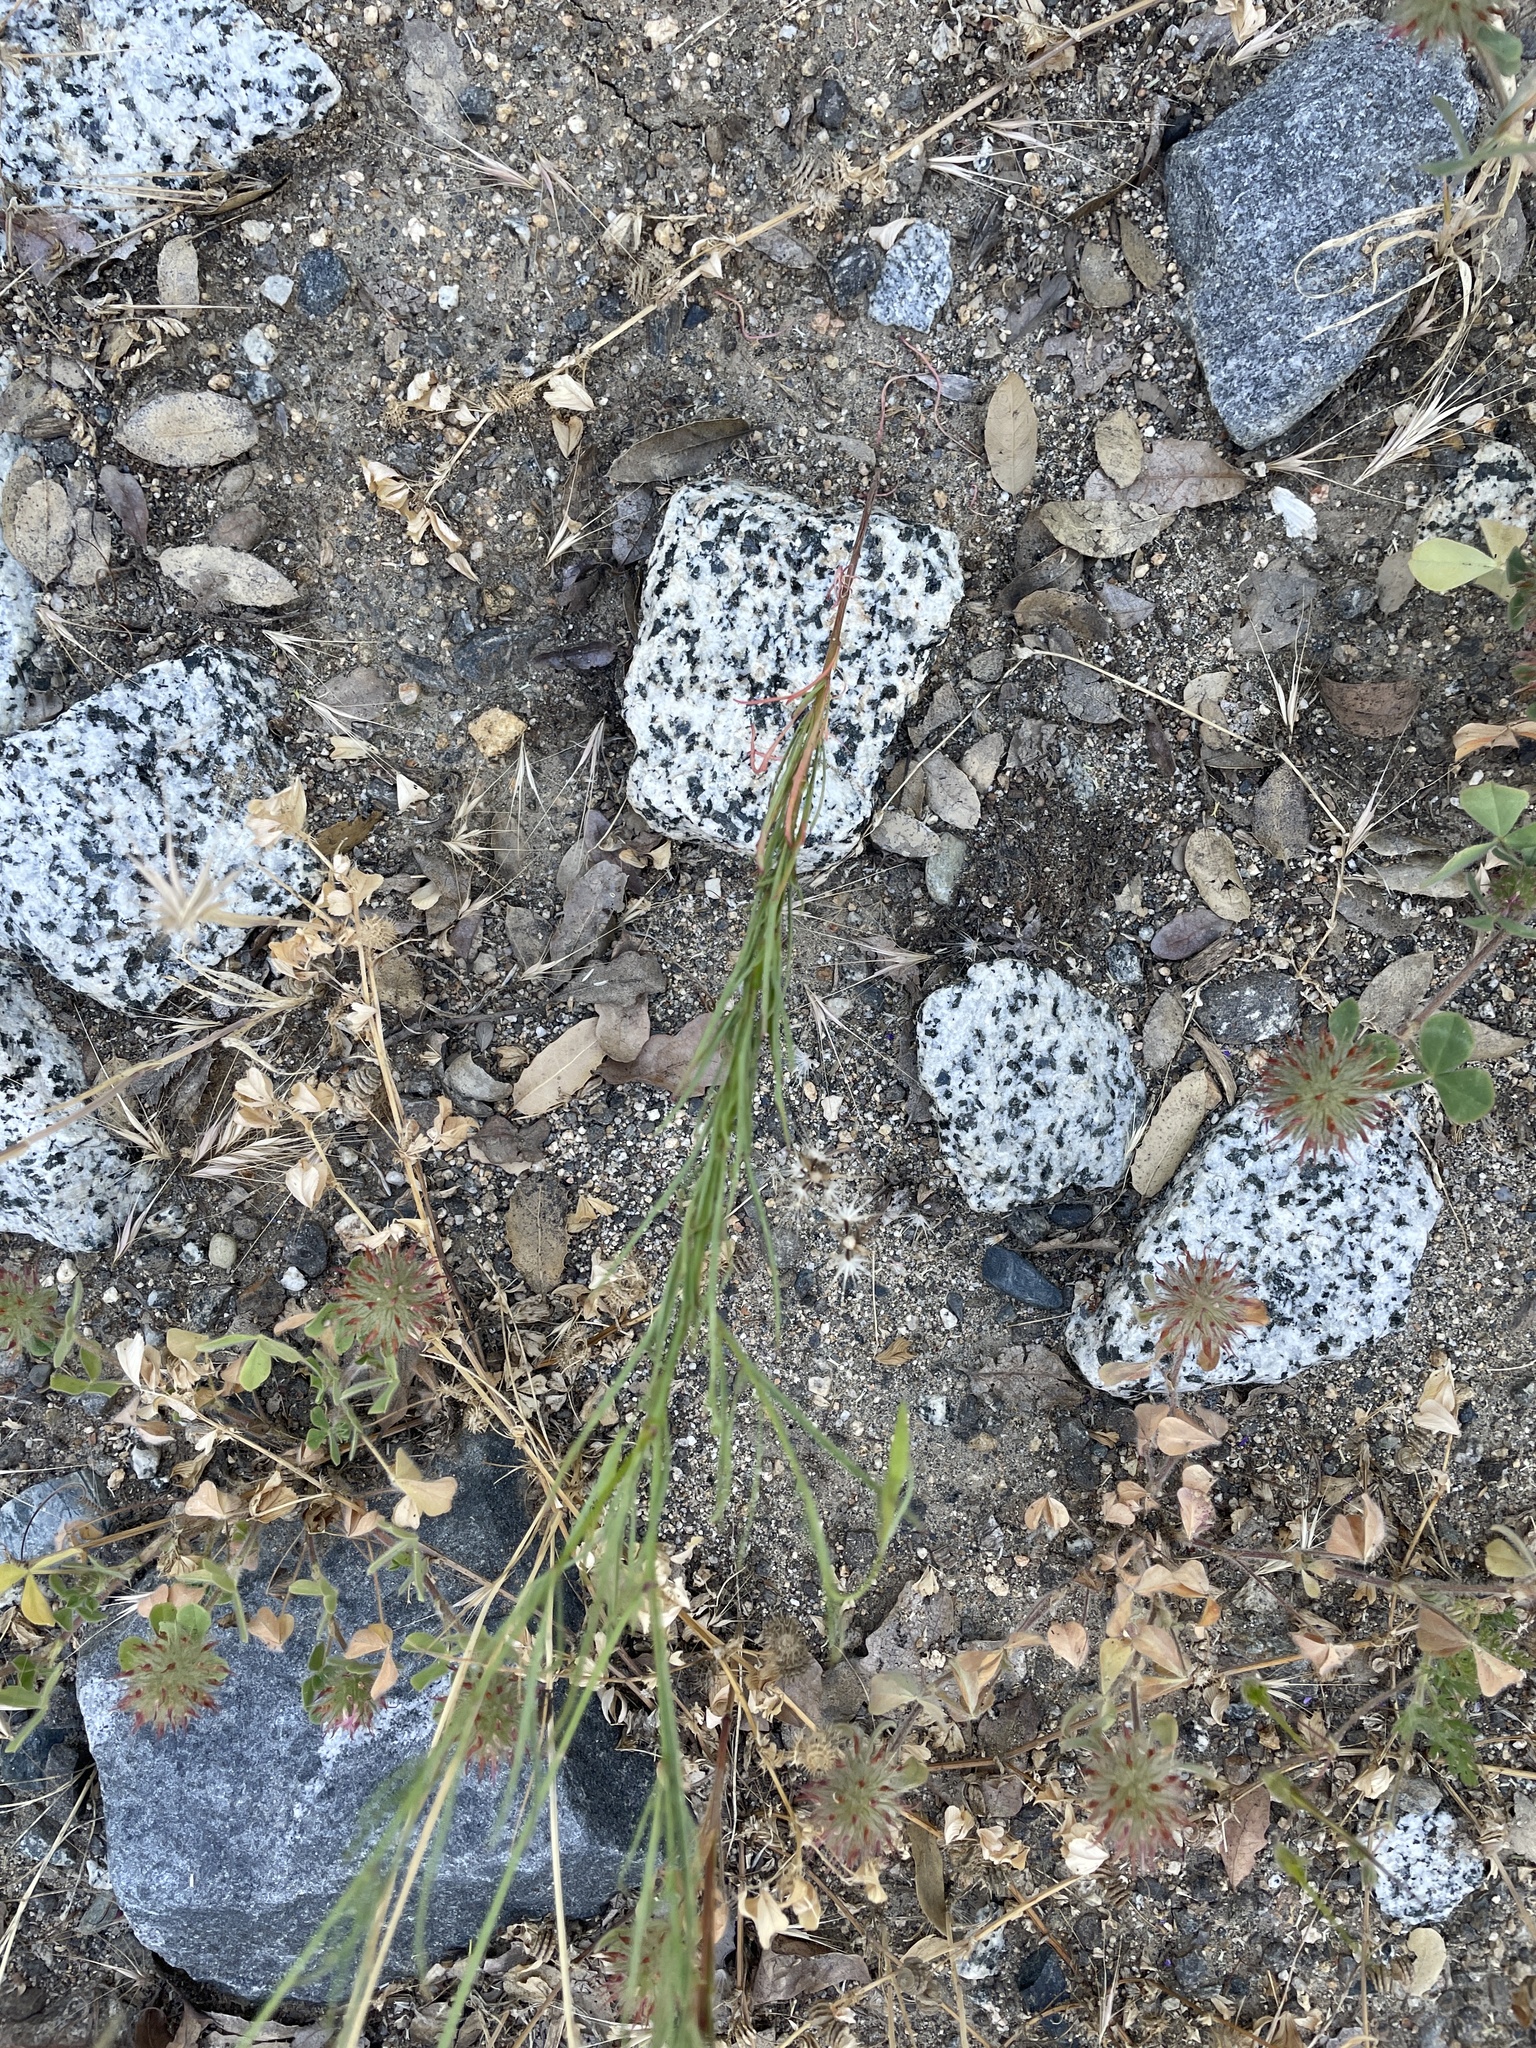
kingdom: Plantae
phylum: Tracheophyta
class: Magnoliopsida
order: Myrtales
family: Onagraceae
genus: Clarkia
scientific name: Clarkia cylindrica
